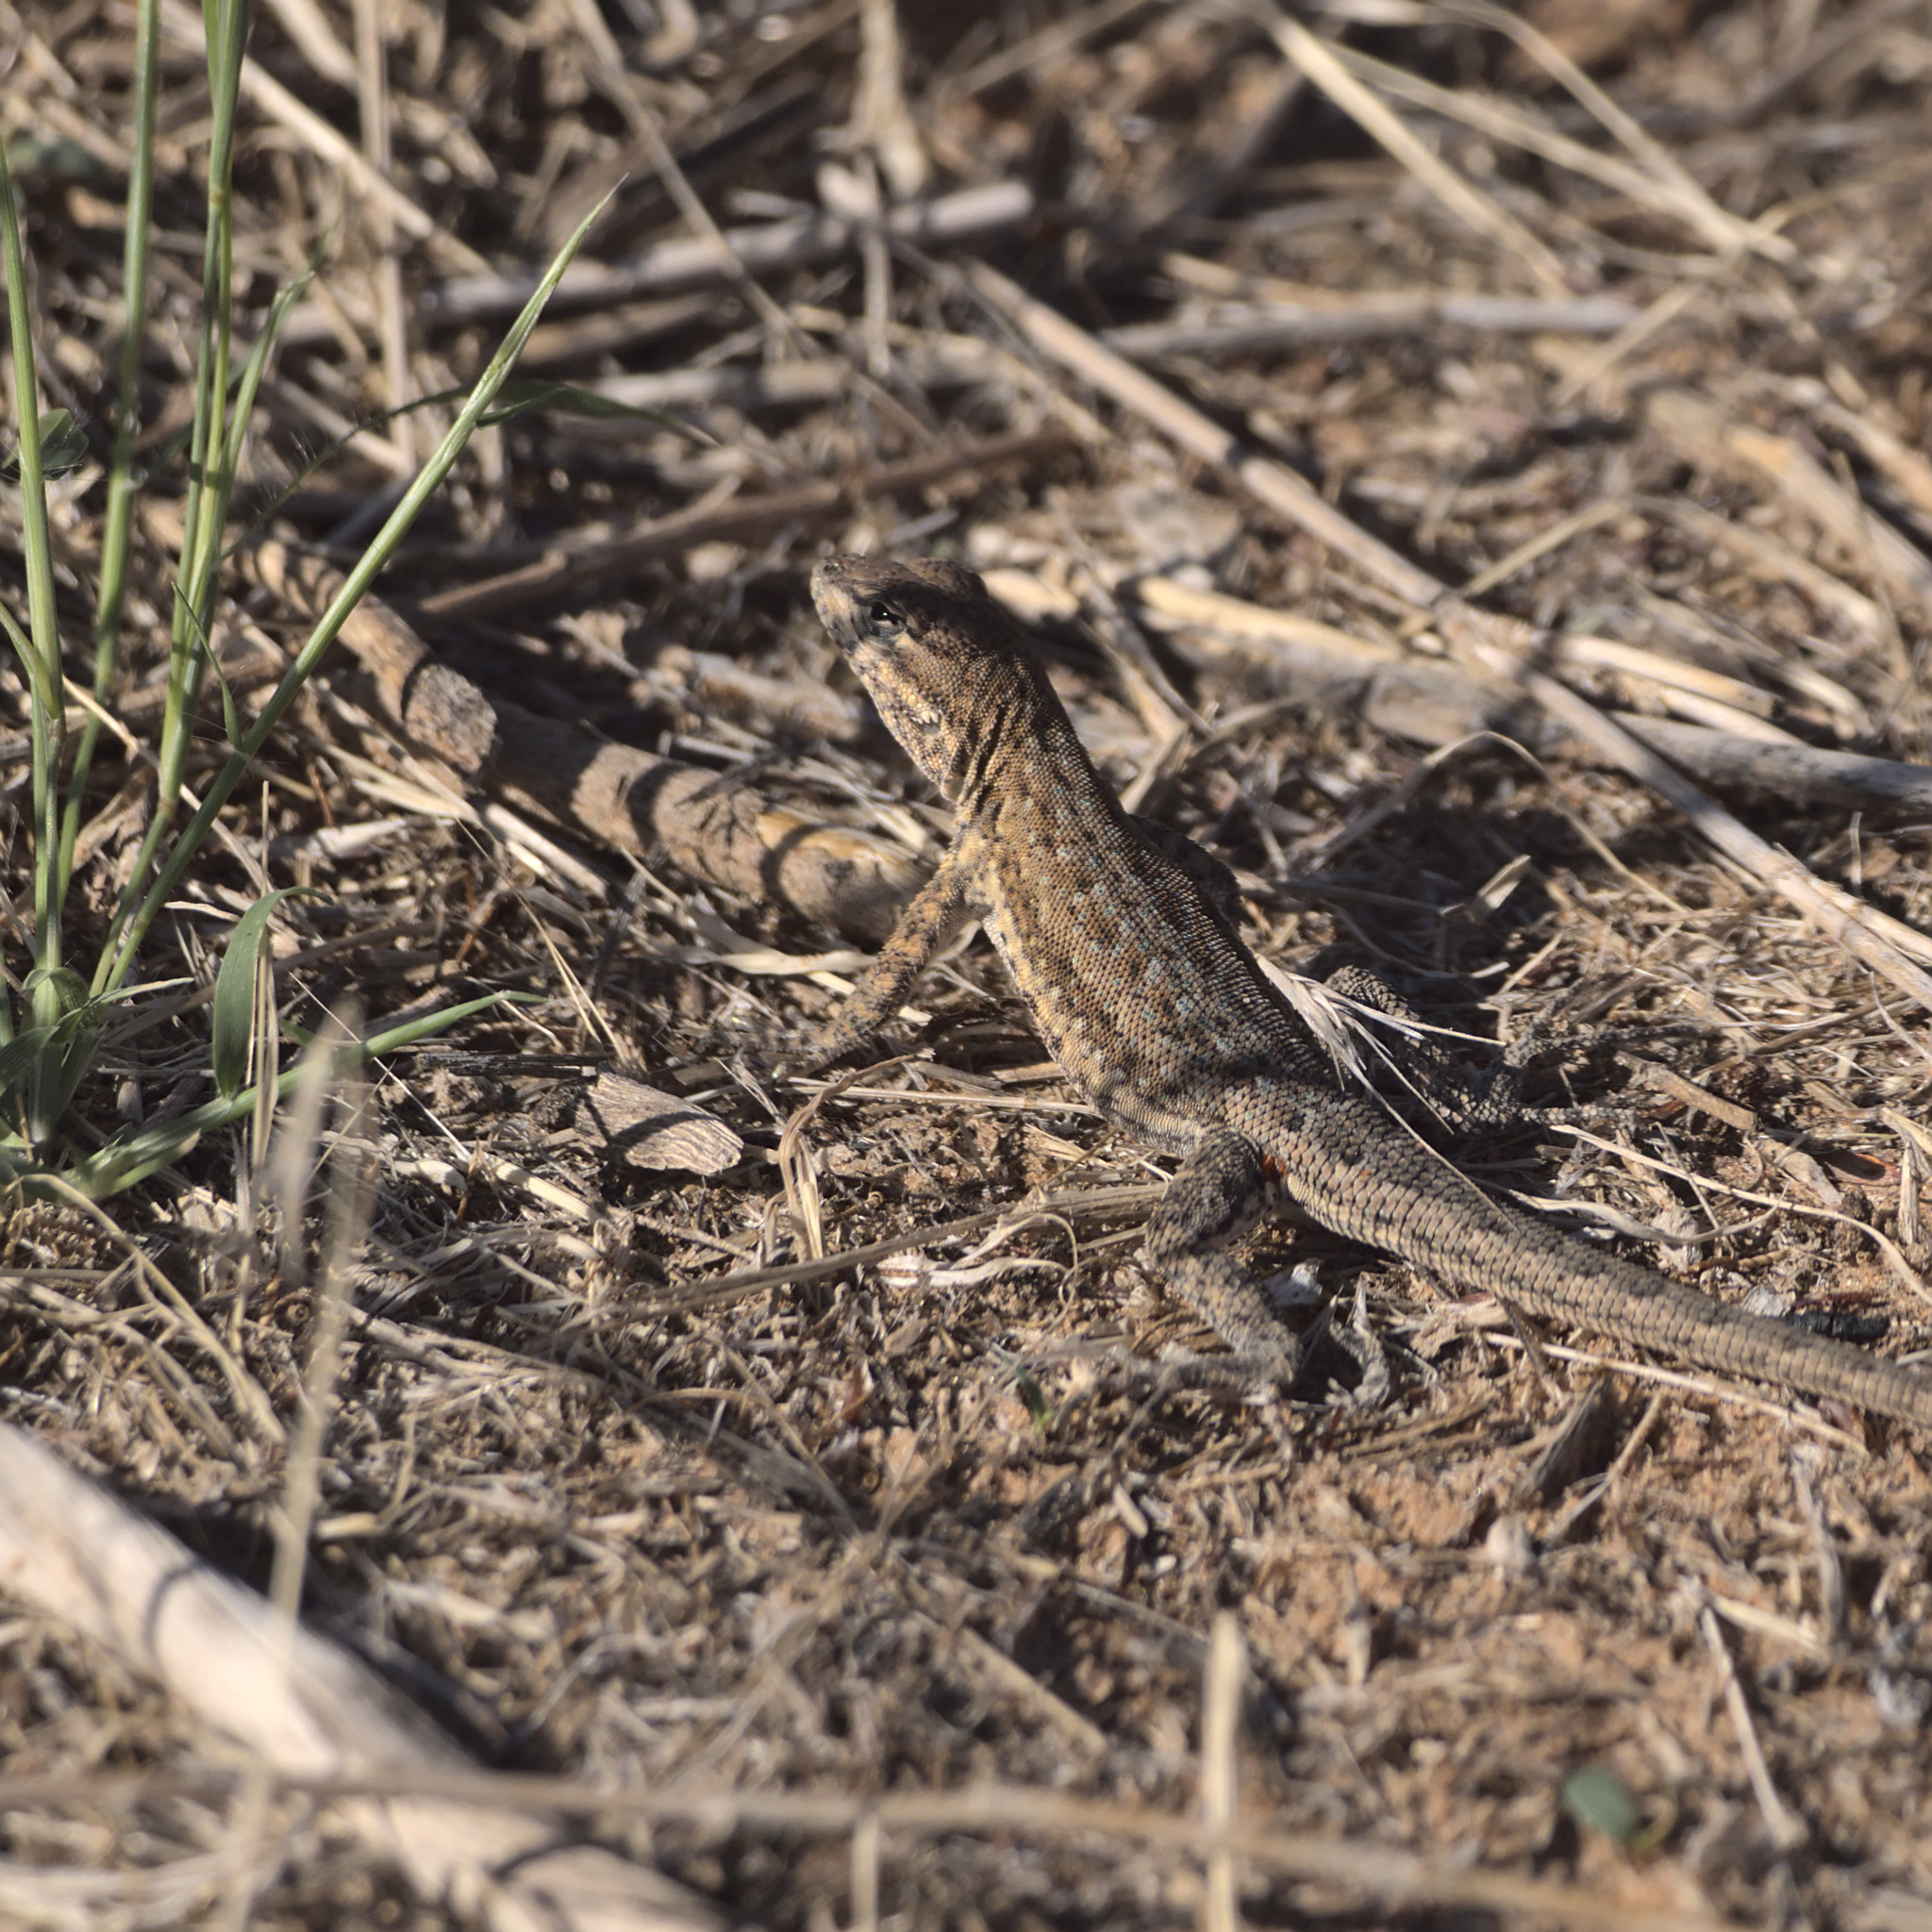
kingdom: Animalia
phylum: Chordata
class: Squamata
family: Phrynosomatidae
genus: Uta
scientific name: Uta stansburiana
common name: Side-blotched lizard
